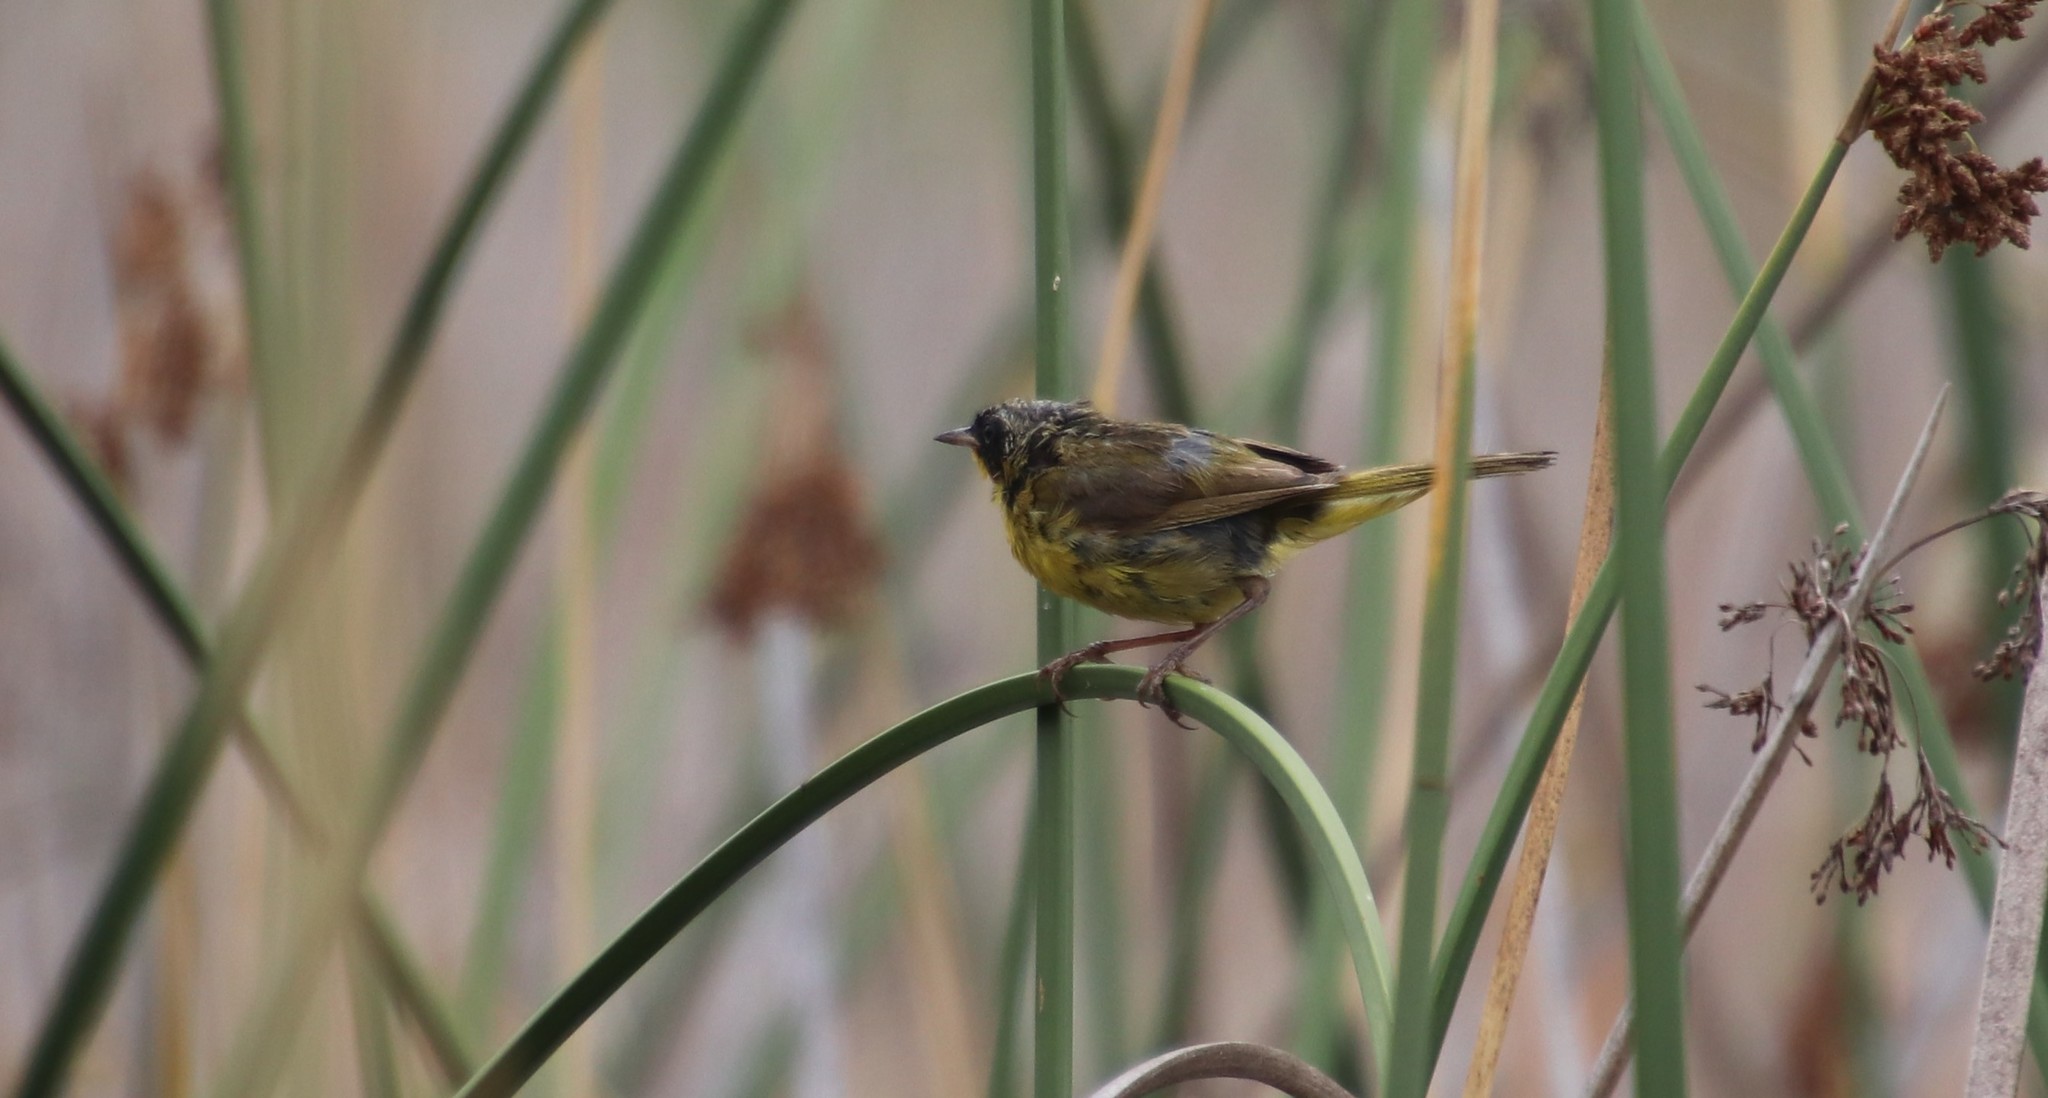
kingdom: Animalia
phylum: Chordata
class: Aves
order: Passeriformes
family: Parulidae
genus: Geothlypis
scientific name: Geothlypis trichas
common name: Common yellowthroat
